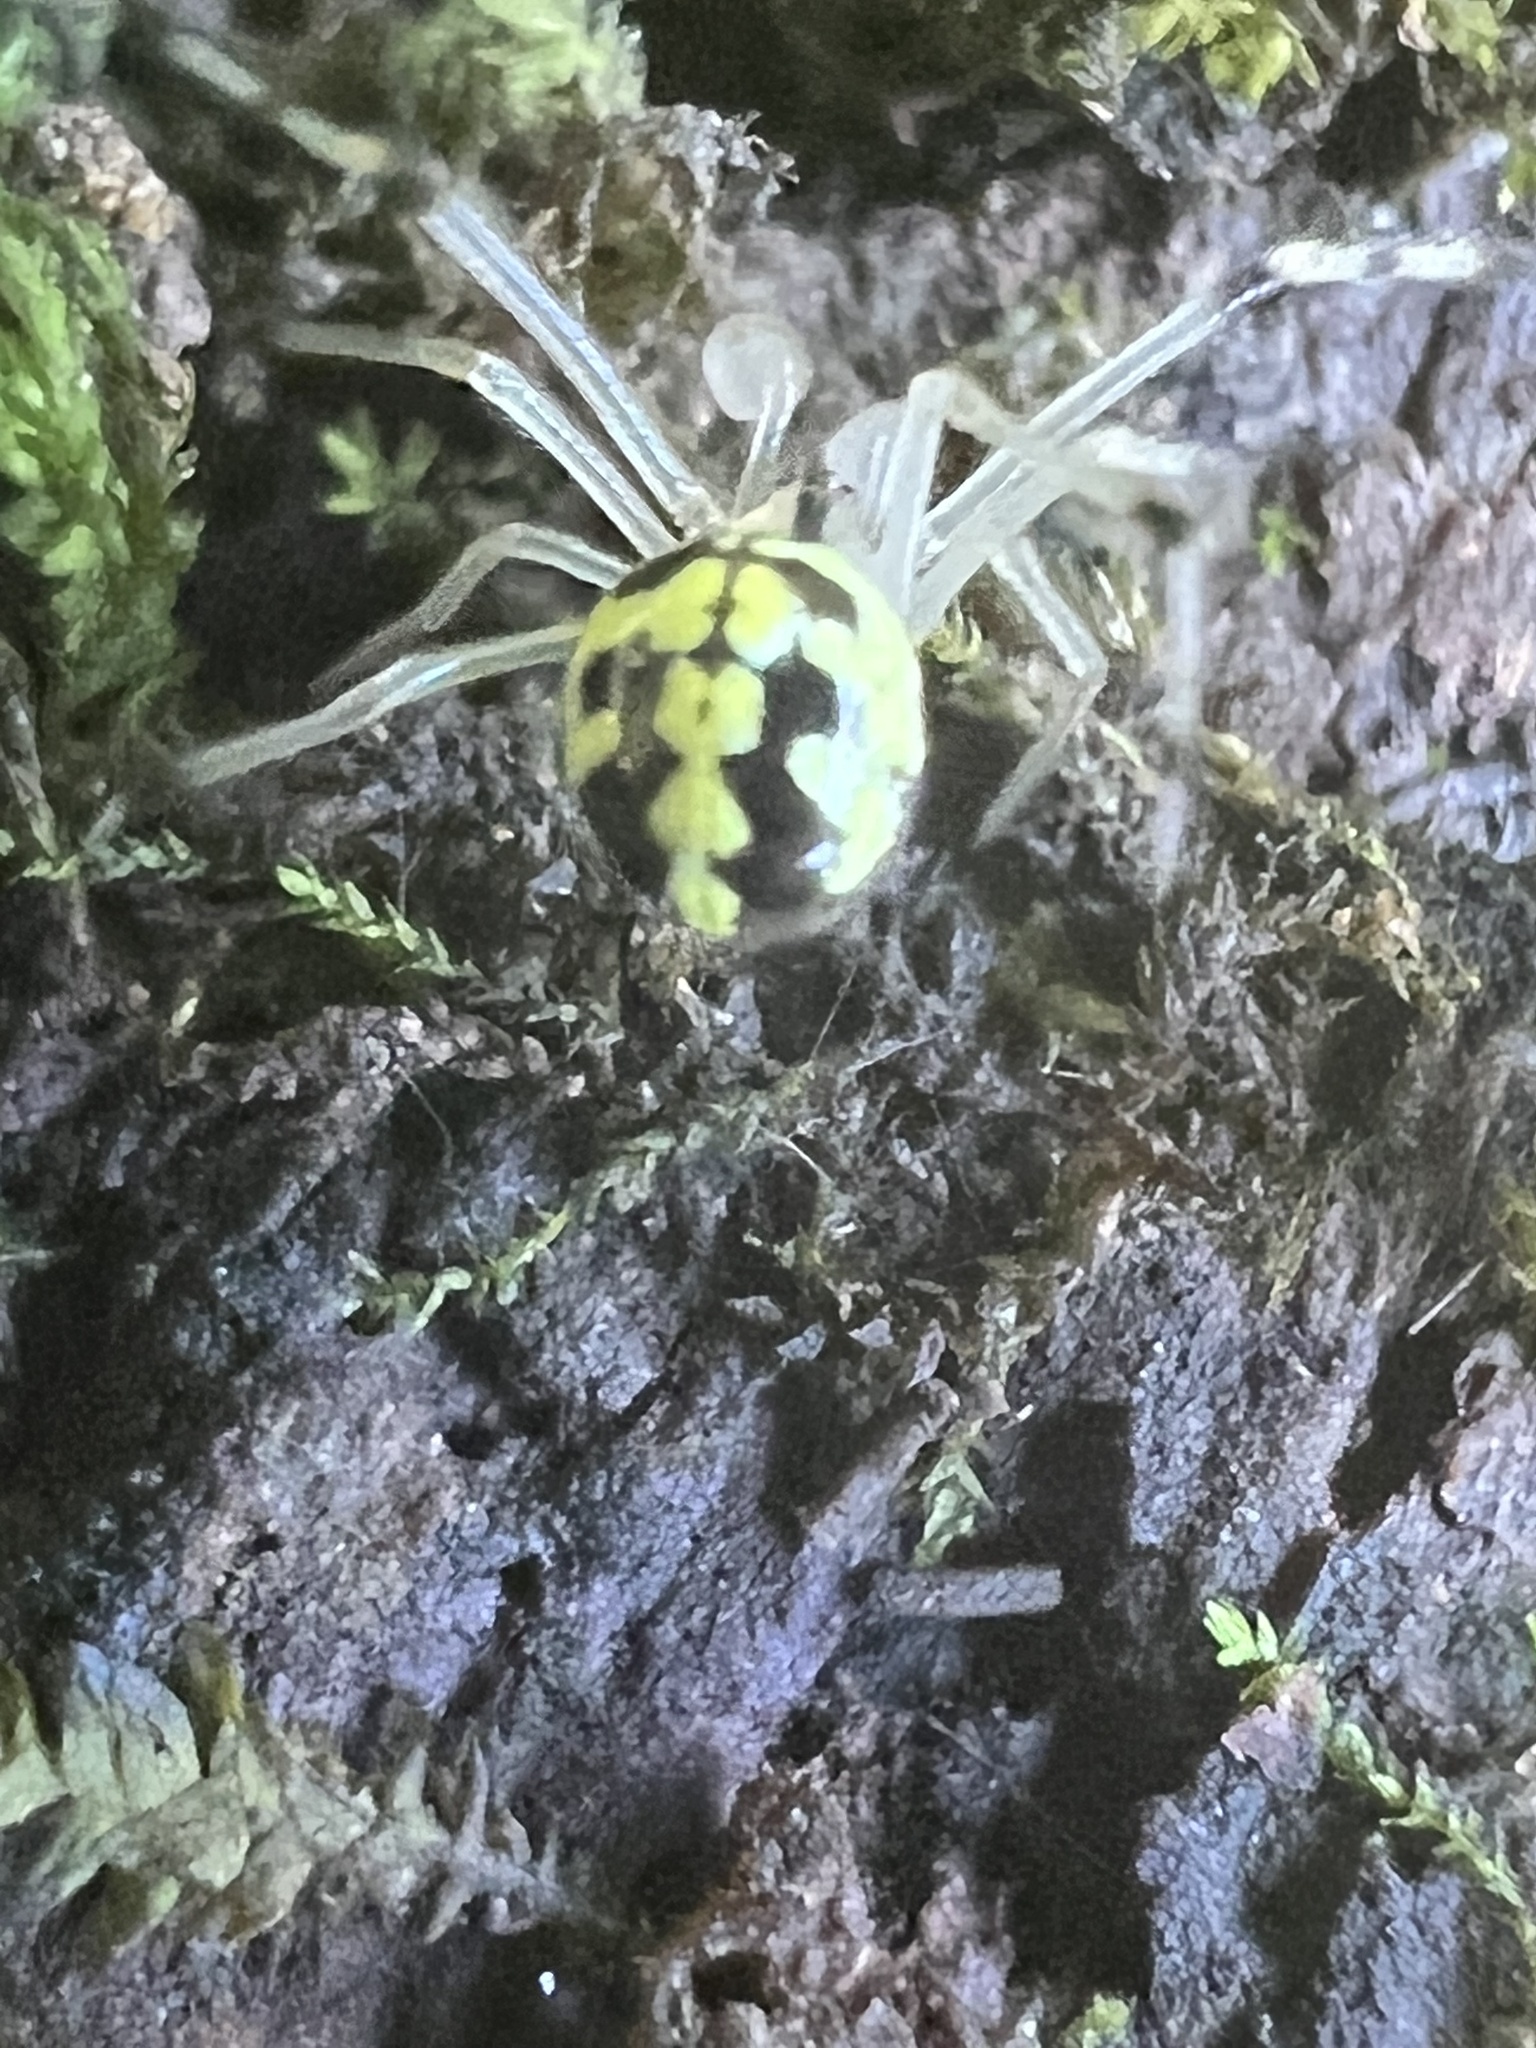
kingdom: Animalia
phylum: Arthropoda
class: Arachnida
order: Araneae
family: Theridiidae
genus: Phylloneta
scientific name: Phylloneta pictipes
